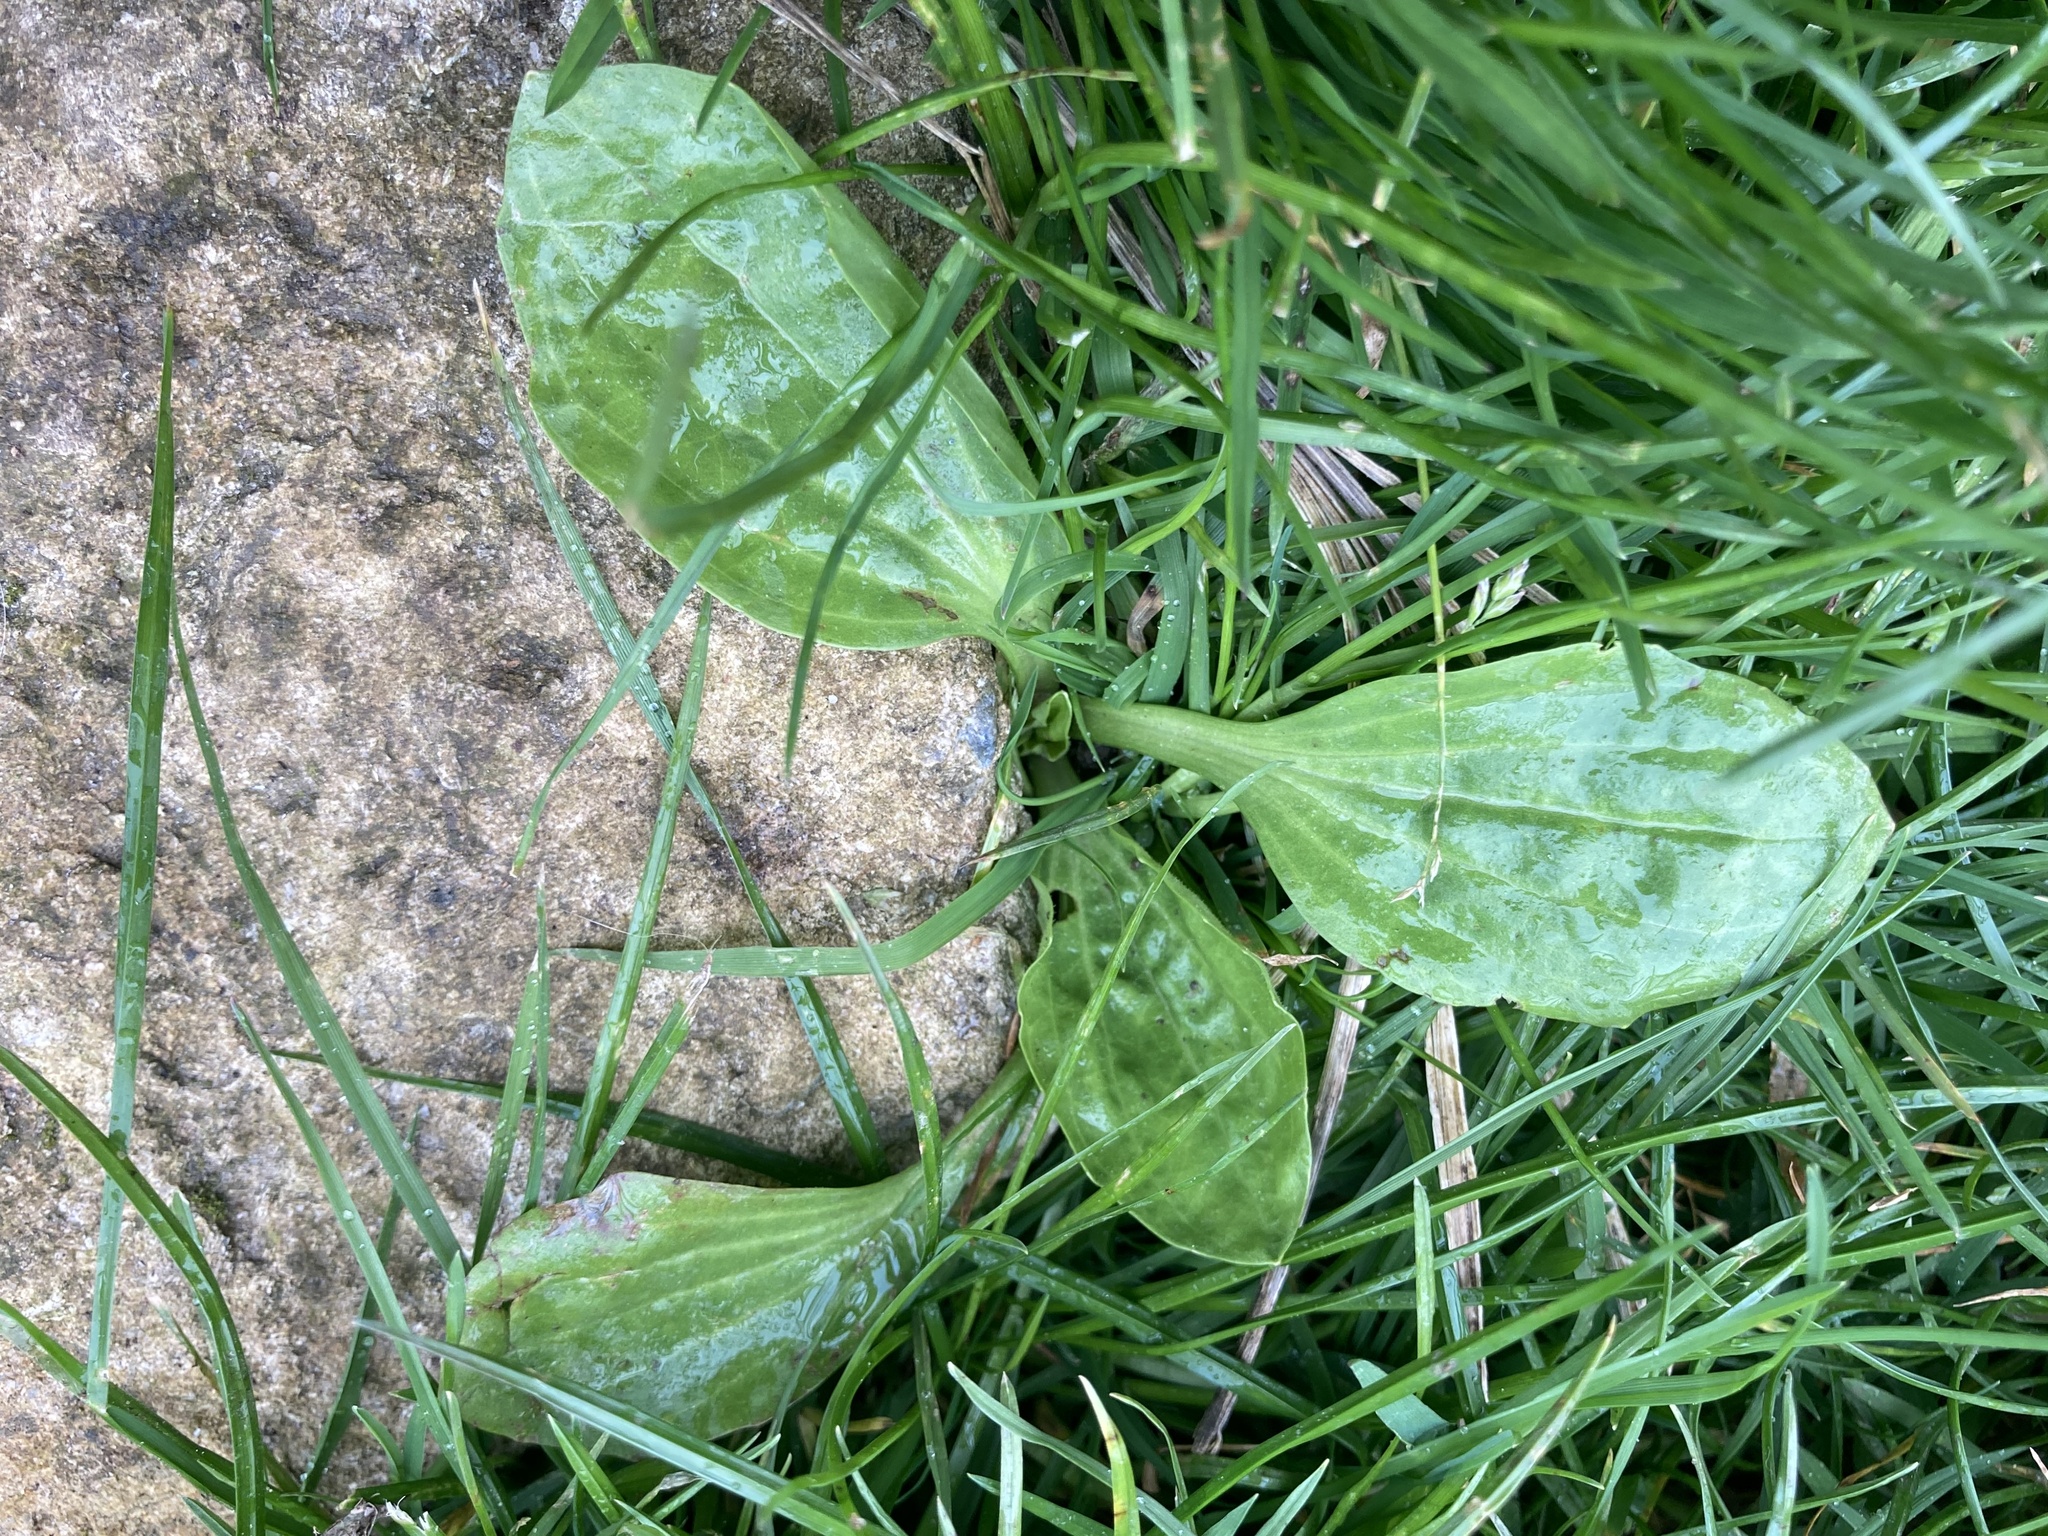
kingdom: Plantae
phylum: Tracheophyta
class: Magnoliopsida
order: Lamiales
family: Plantaginaceae
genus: Plantago
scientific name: Plantago major
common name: Common plantain
